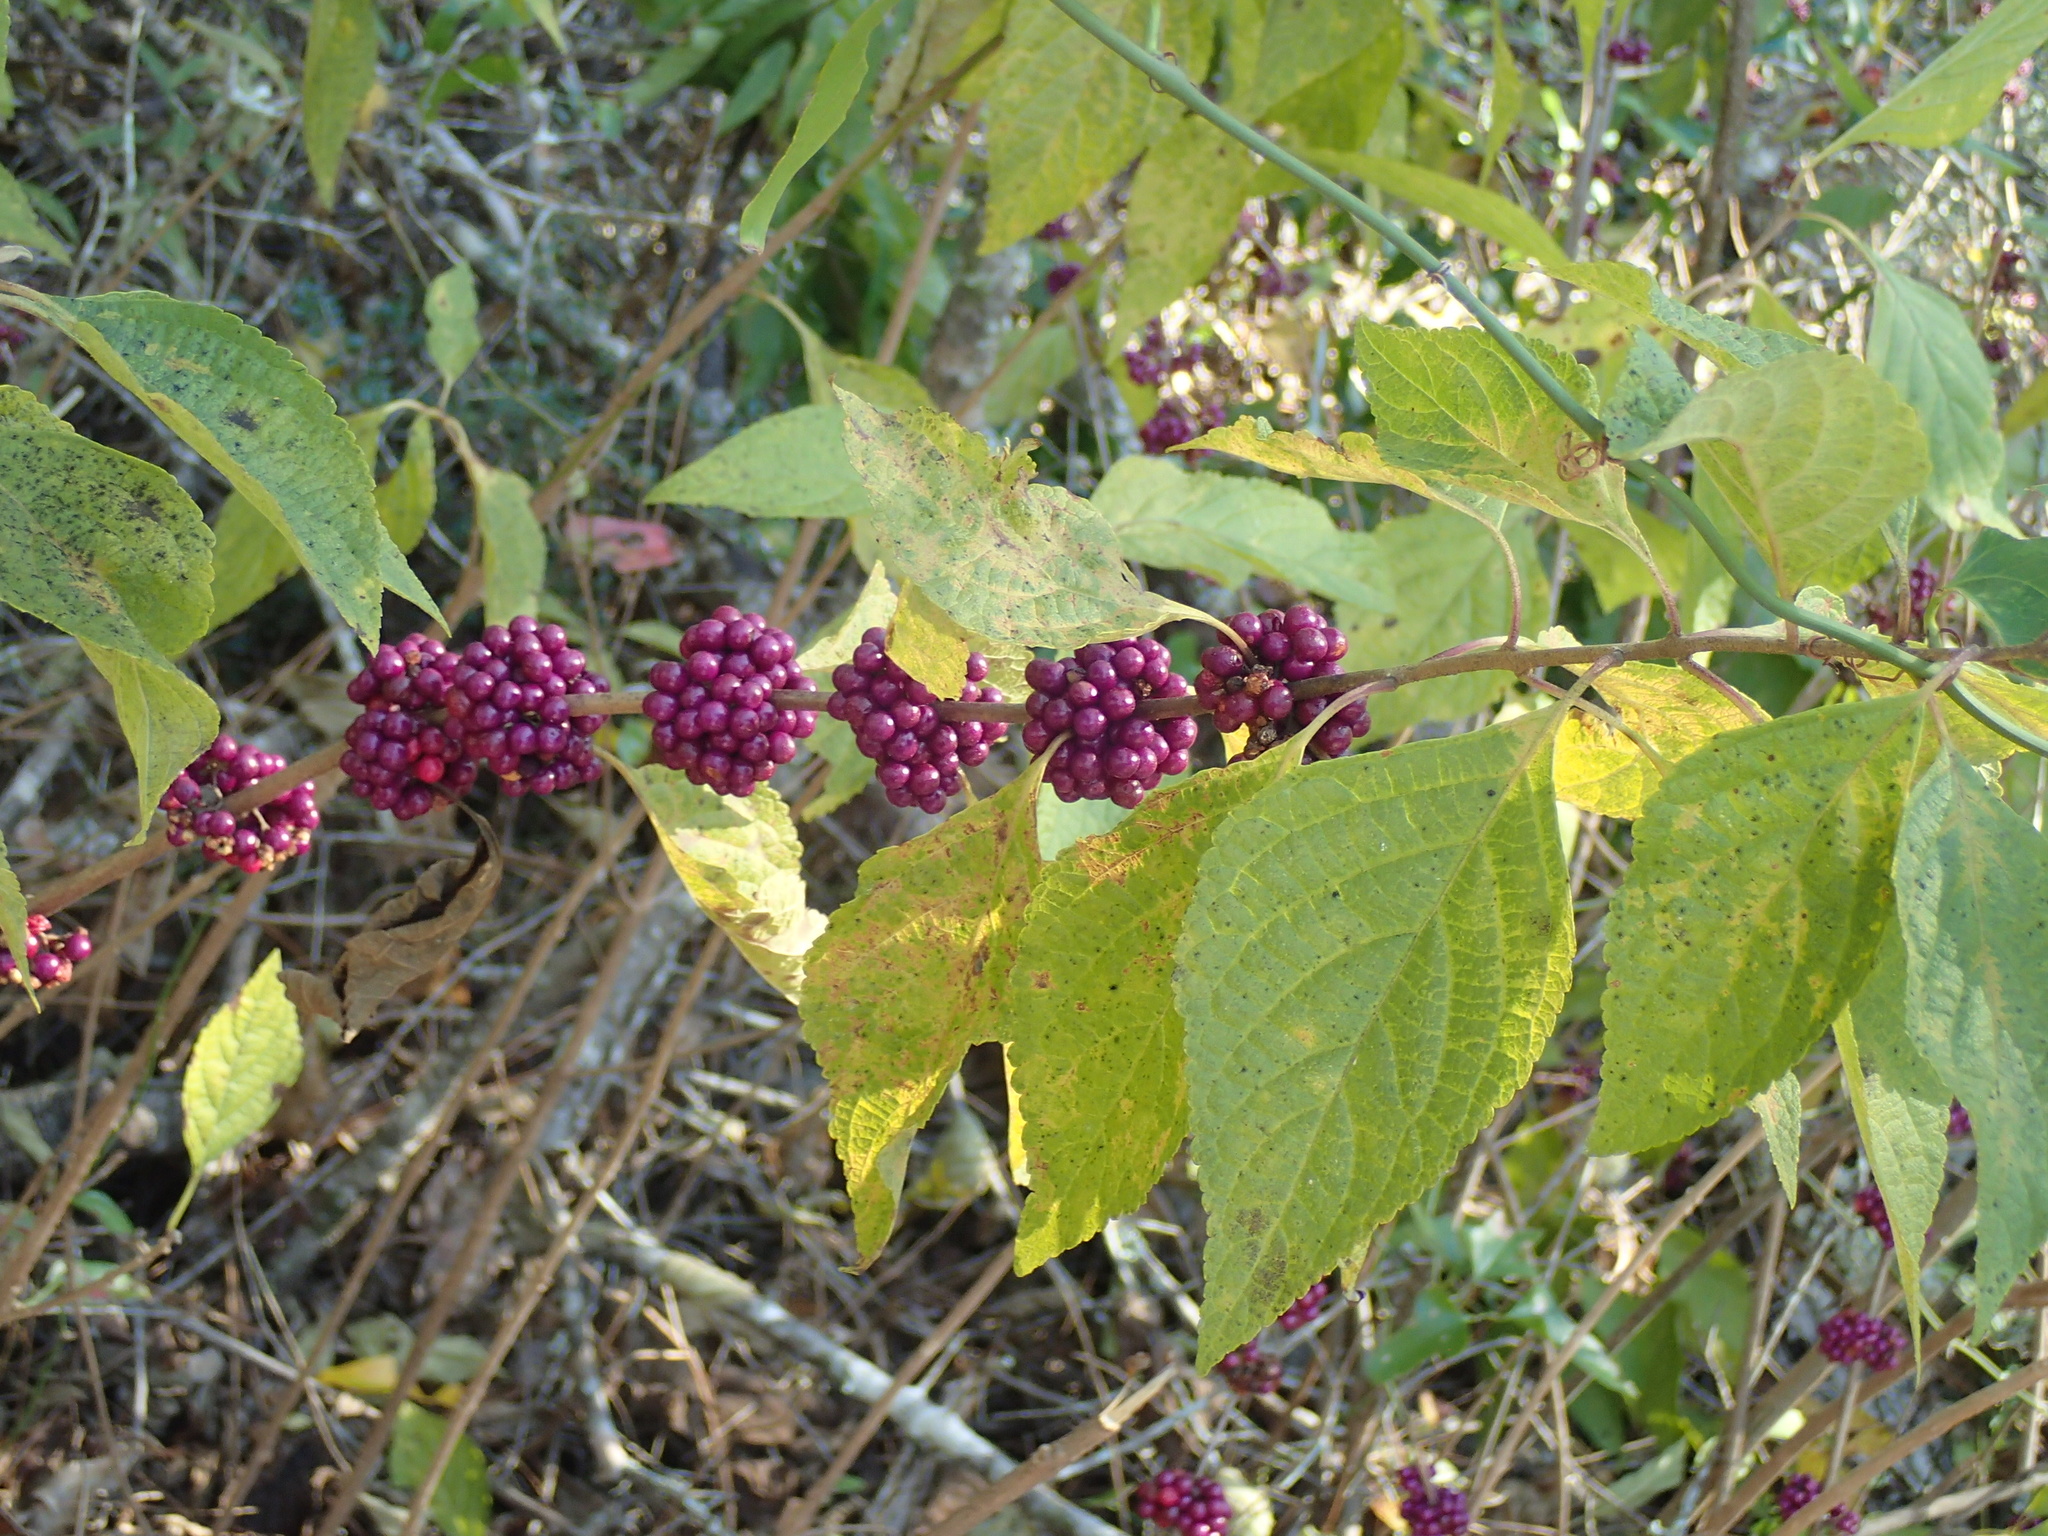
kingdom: Plantae
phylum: Tracheophyta
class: Magnoliopsida
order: Lamiales
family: Lamiaceae
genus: Callicarpa
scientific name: Callicarpa americana
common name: American beautyberry
